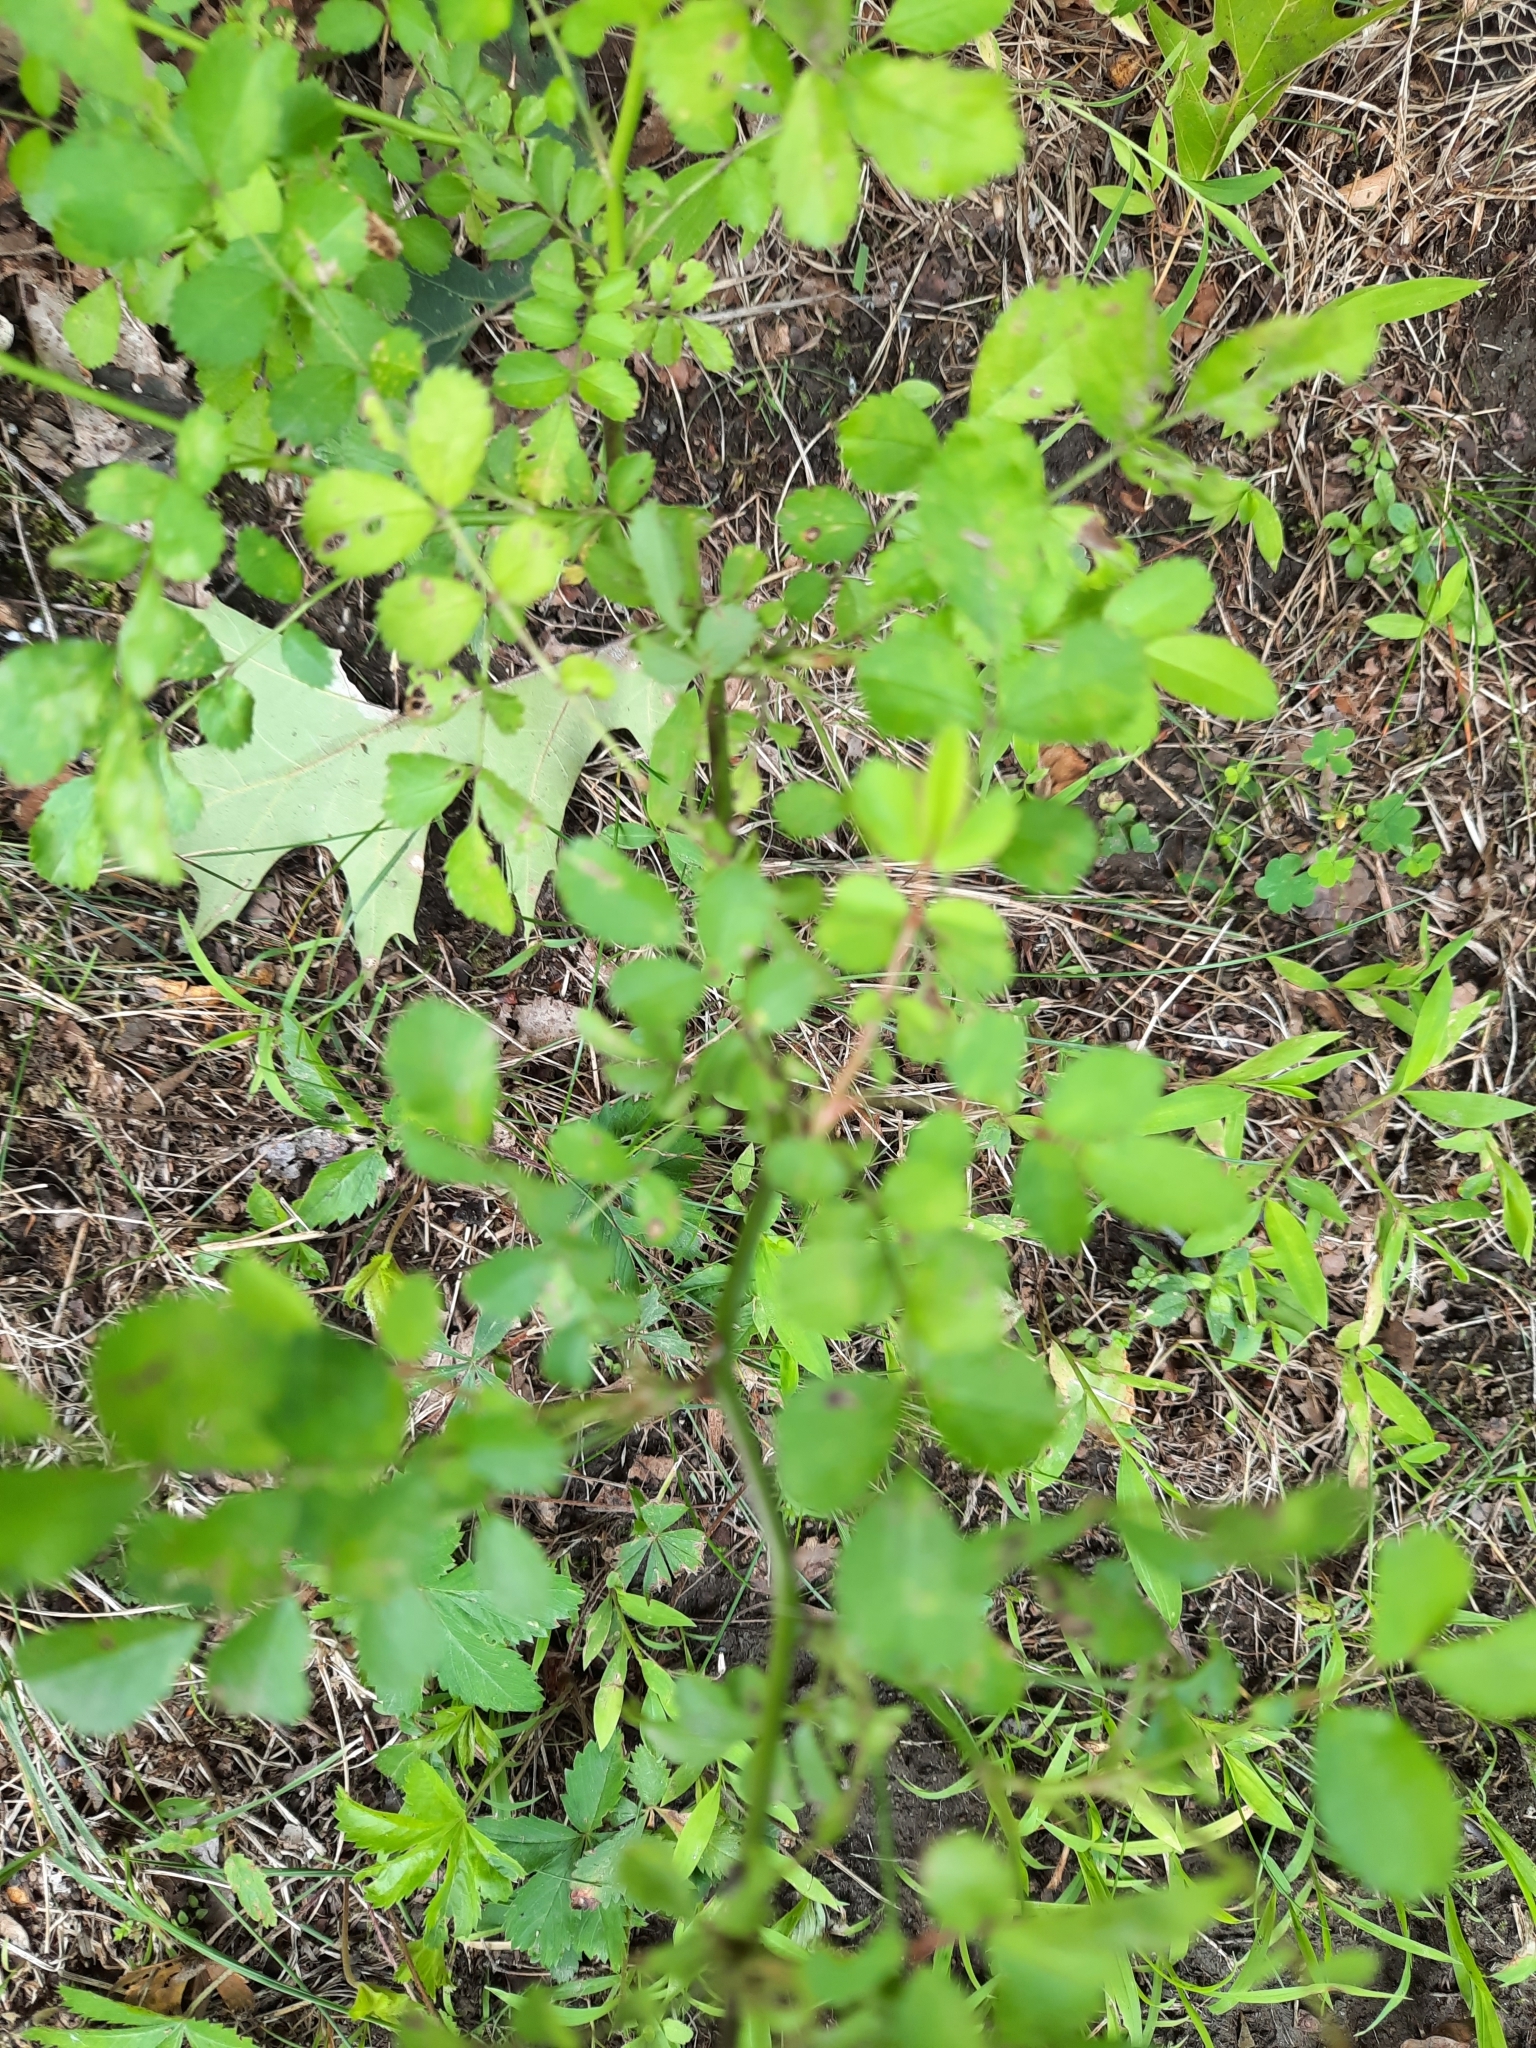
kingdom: Plantae
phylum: Tracheophyta
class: Magnoliopsida
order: Rosales
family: Rosaceae
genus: Rosa
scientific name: Rosa multiflora
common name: Multiflora rose
